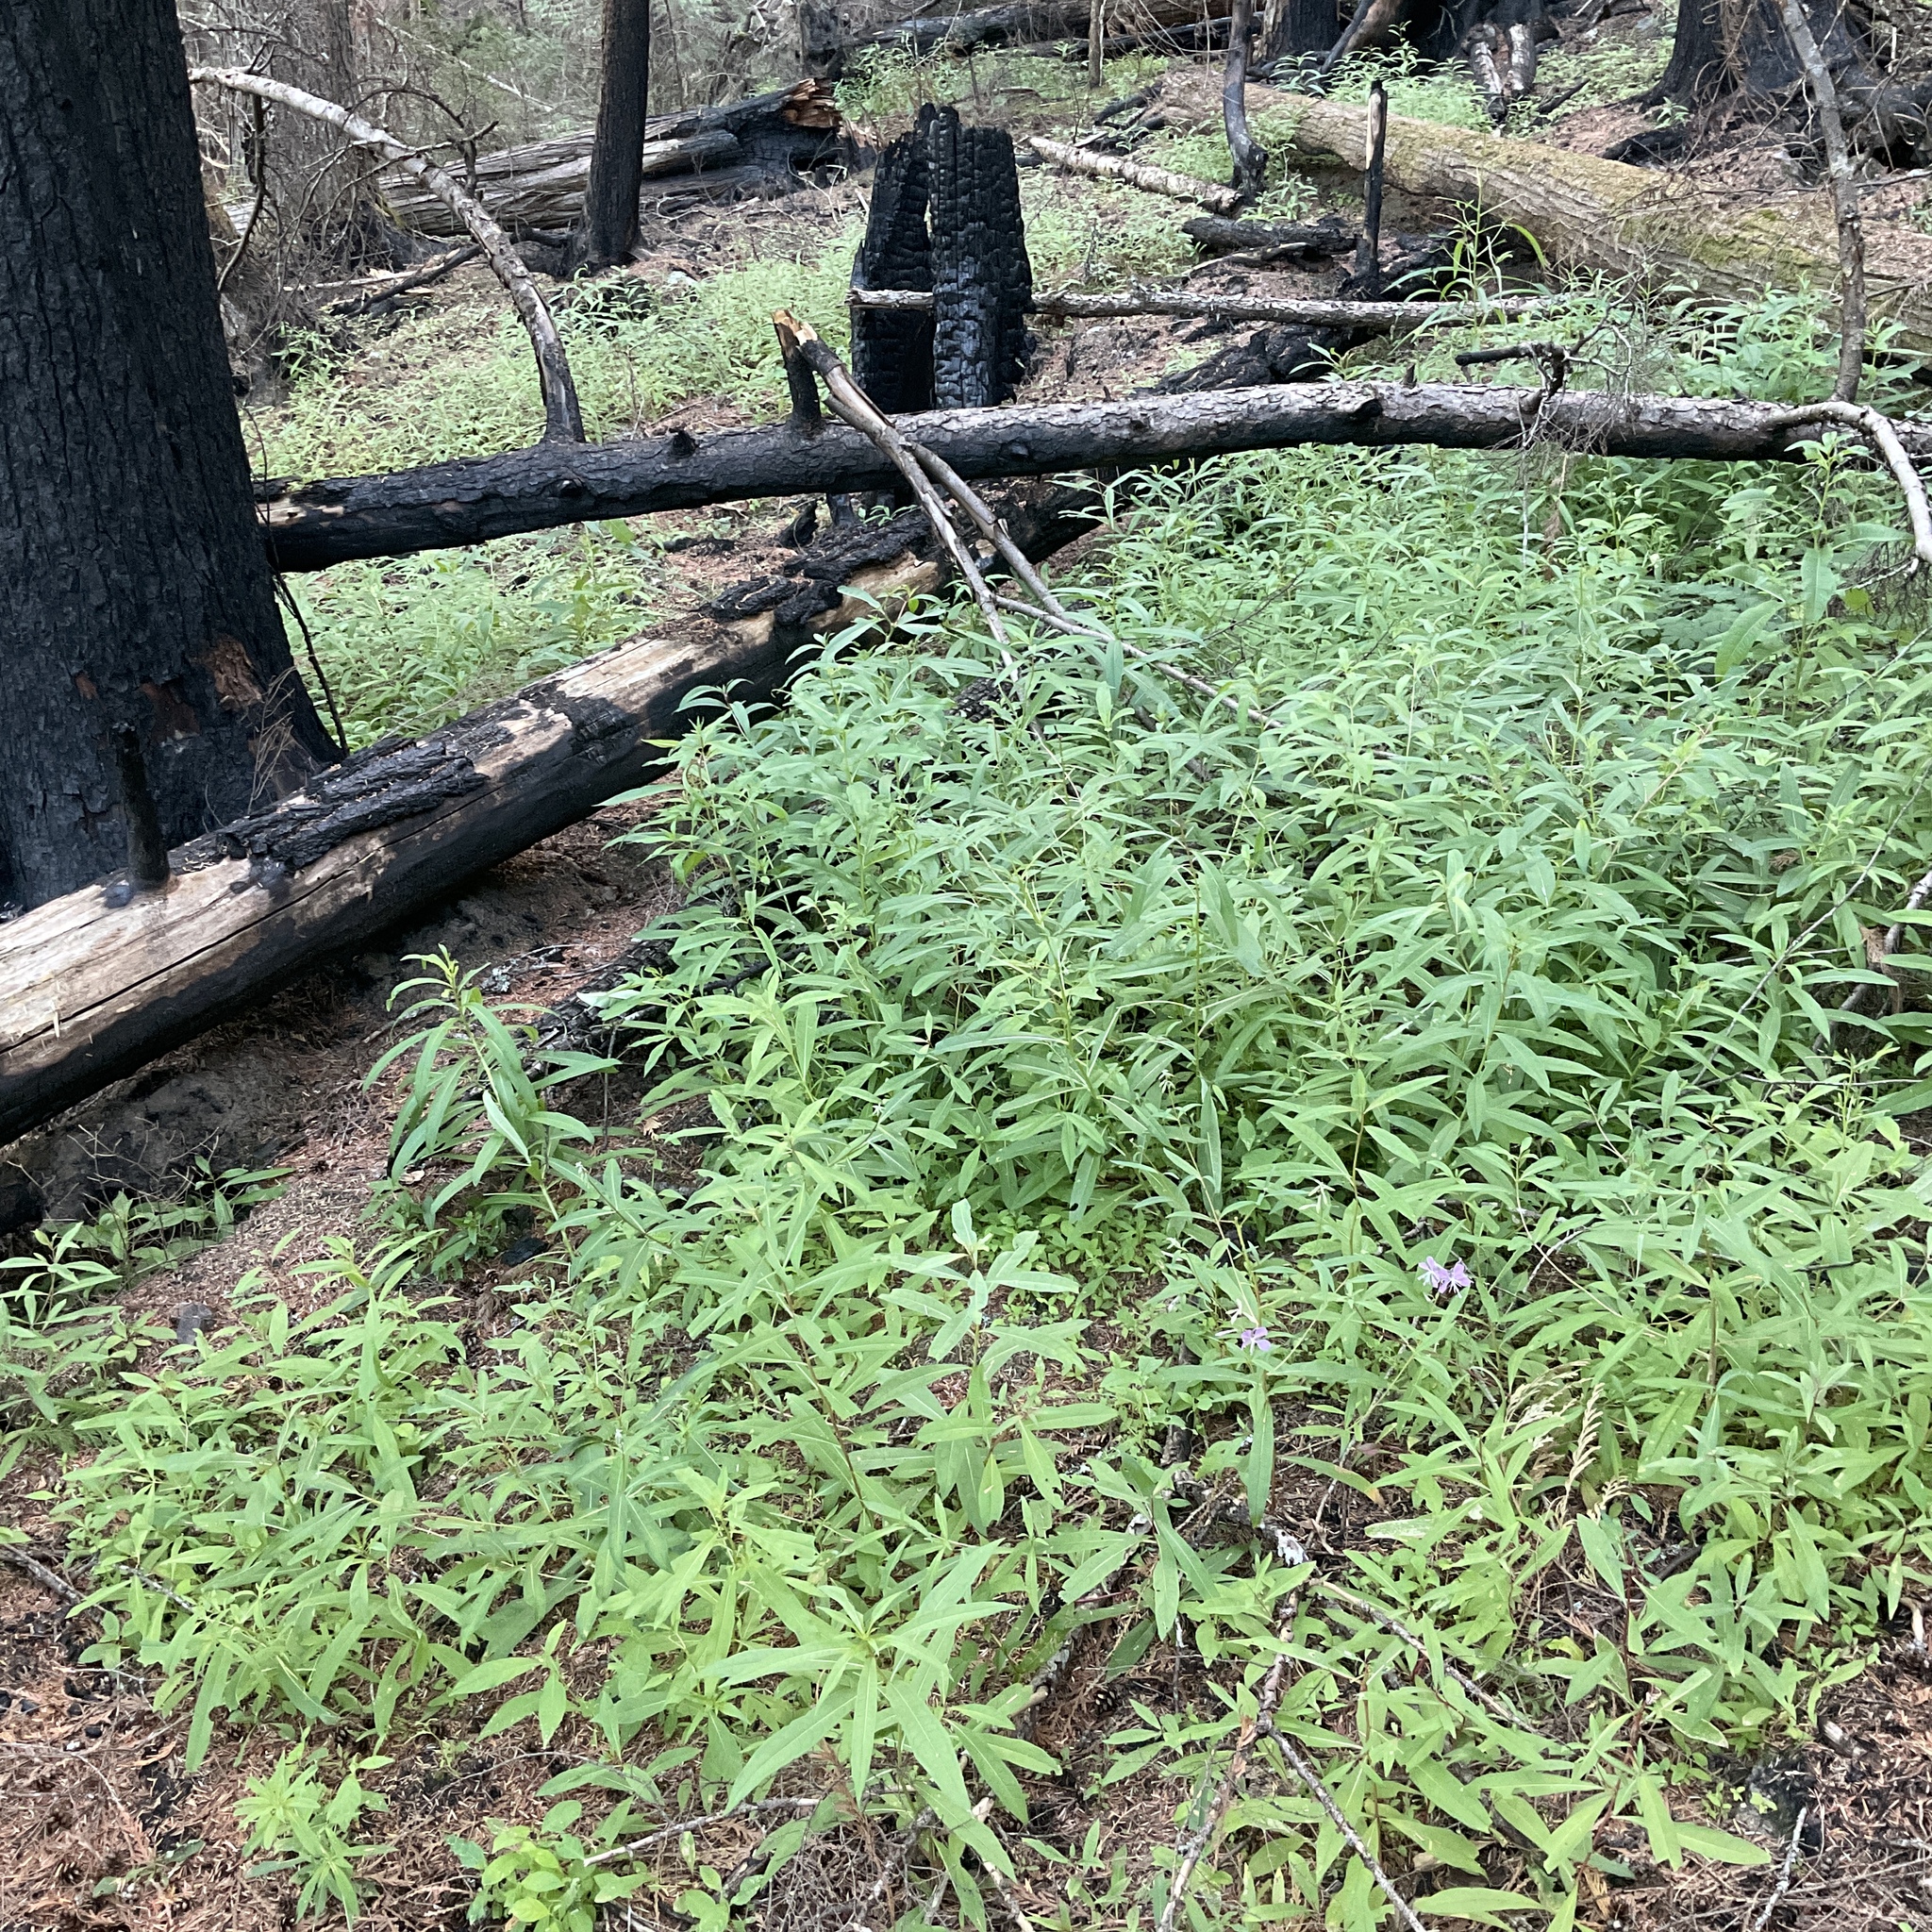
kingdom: Plantae
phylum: Tracheophyta
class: Magnoliopsida
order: Myrtales
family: Onagraceae
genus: Chamaenerion
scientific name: Chamaenerion angustifolium
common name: Fireweed
